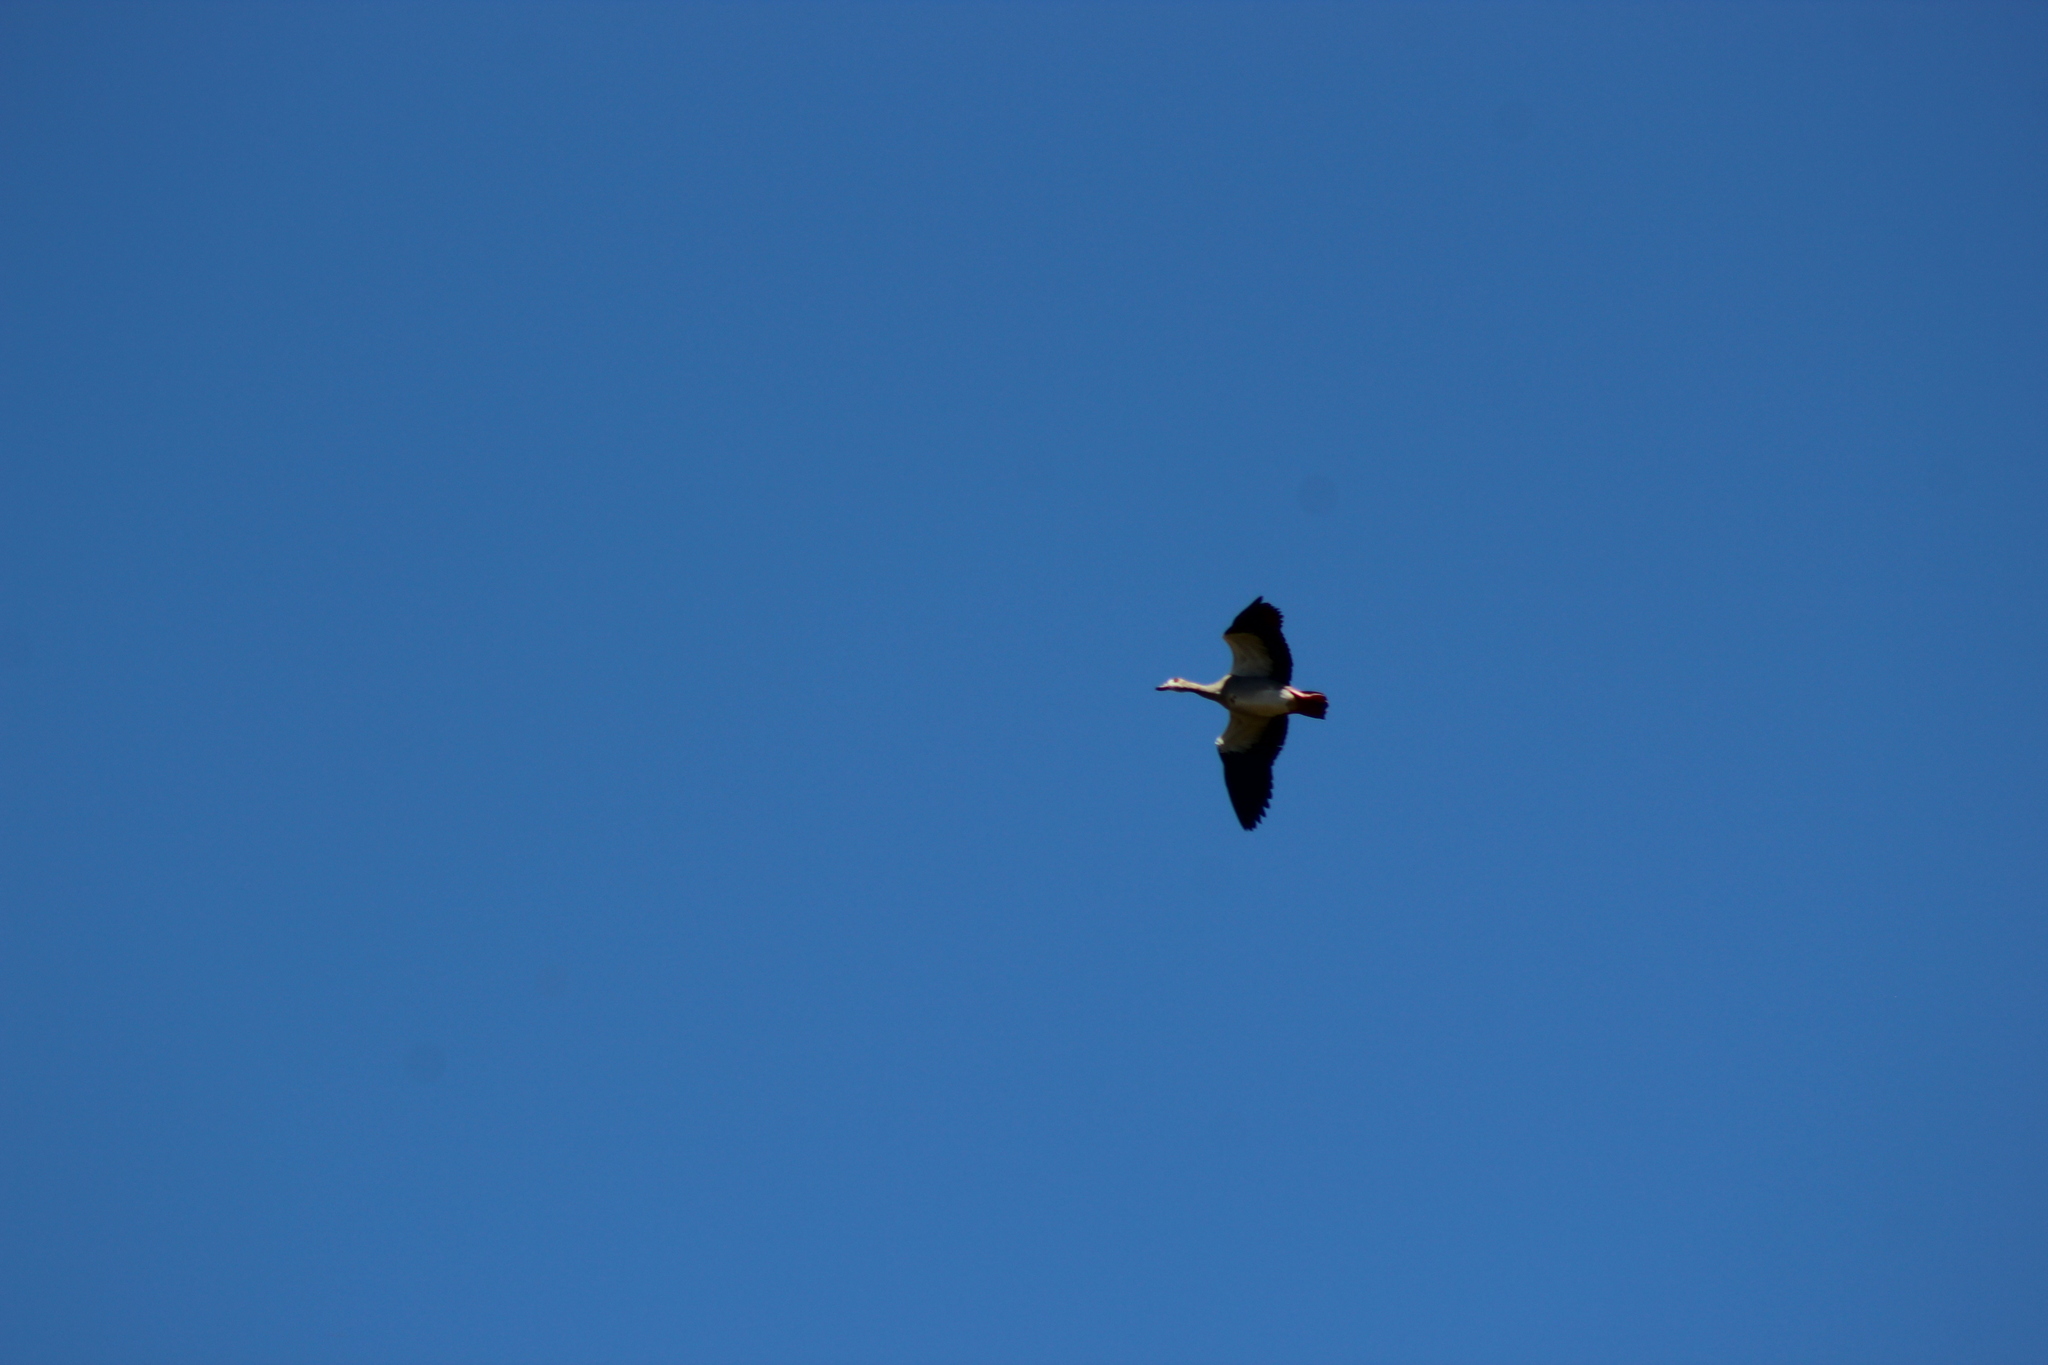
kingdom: Animalia
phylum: Chordata
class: Aves
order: Anseriformes
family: Anatidae
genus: Alopochen
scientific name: Alopochen aegyptiaca
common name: Egyptian goose
